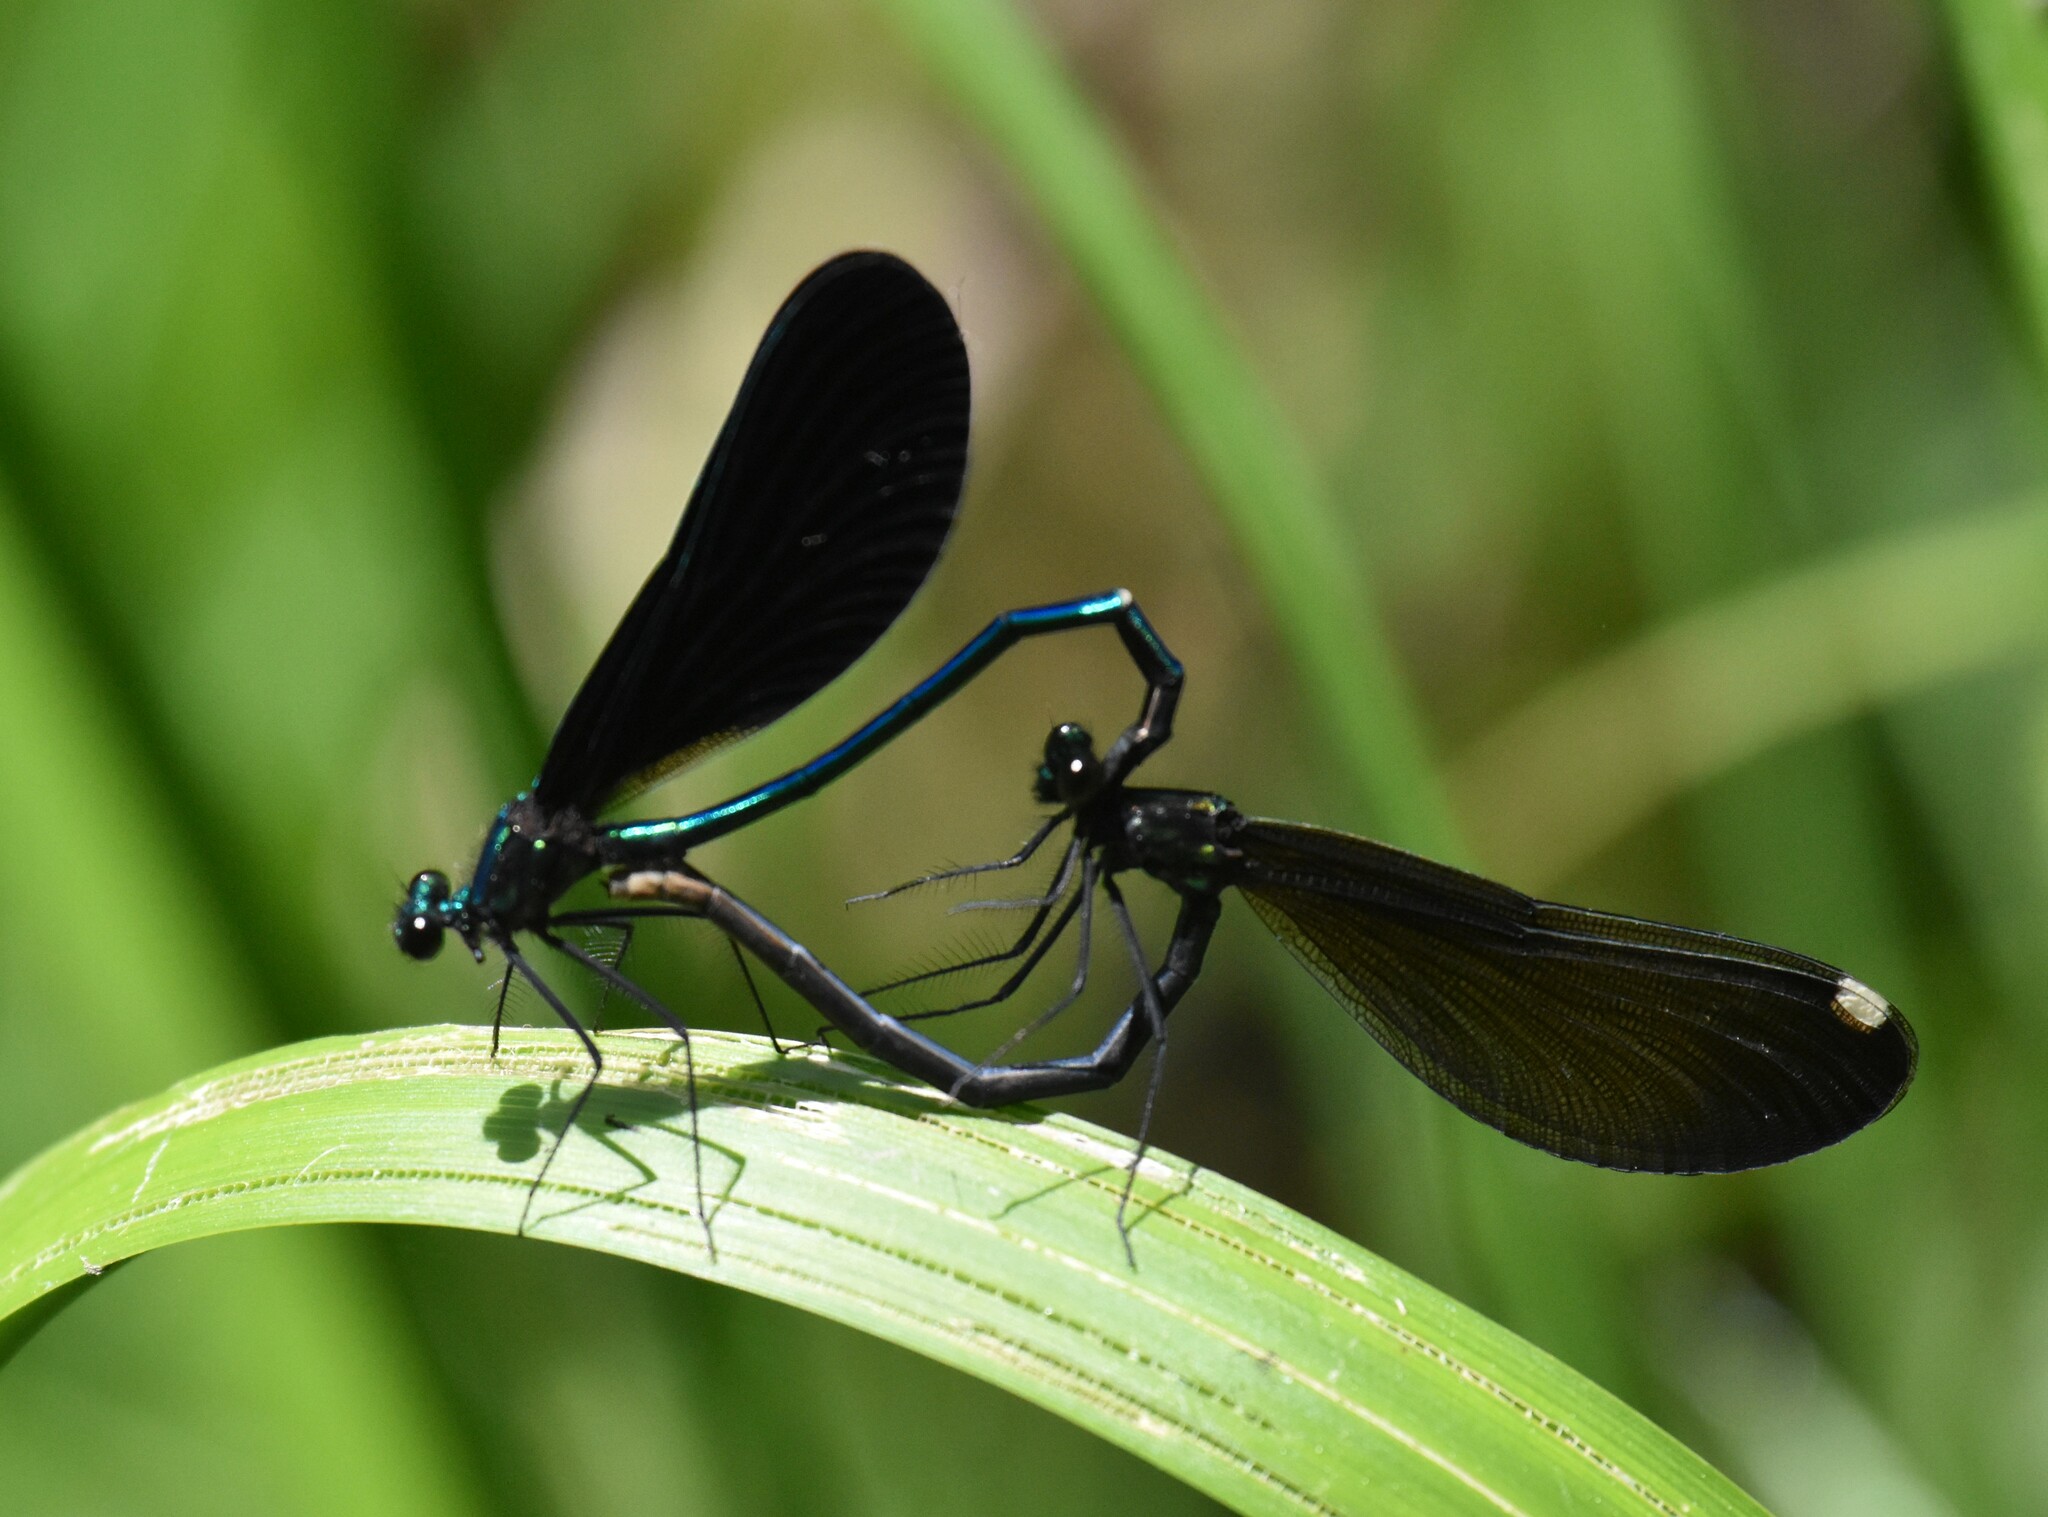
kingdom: Animalia
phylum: Arthropoda
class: Insecta
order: Odonata
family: Calopterygidae
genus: Calopteryx
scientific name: Calopteryx maculata
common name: Ebony jewelwing
